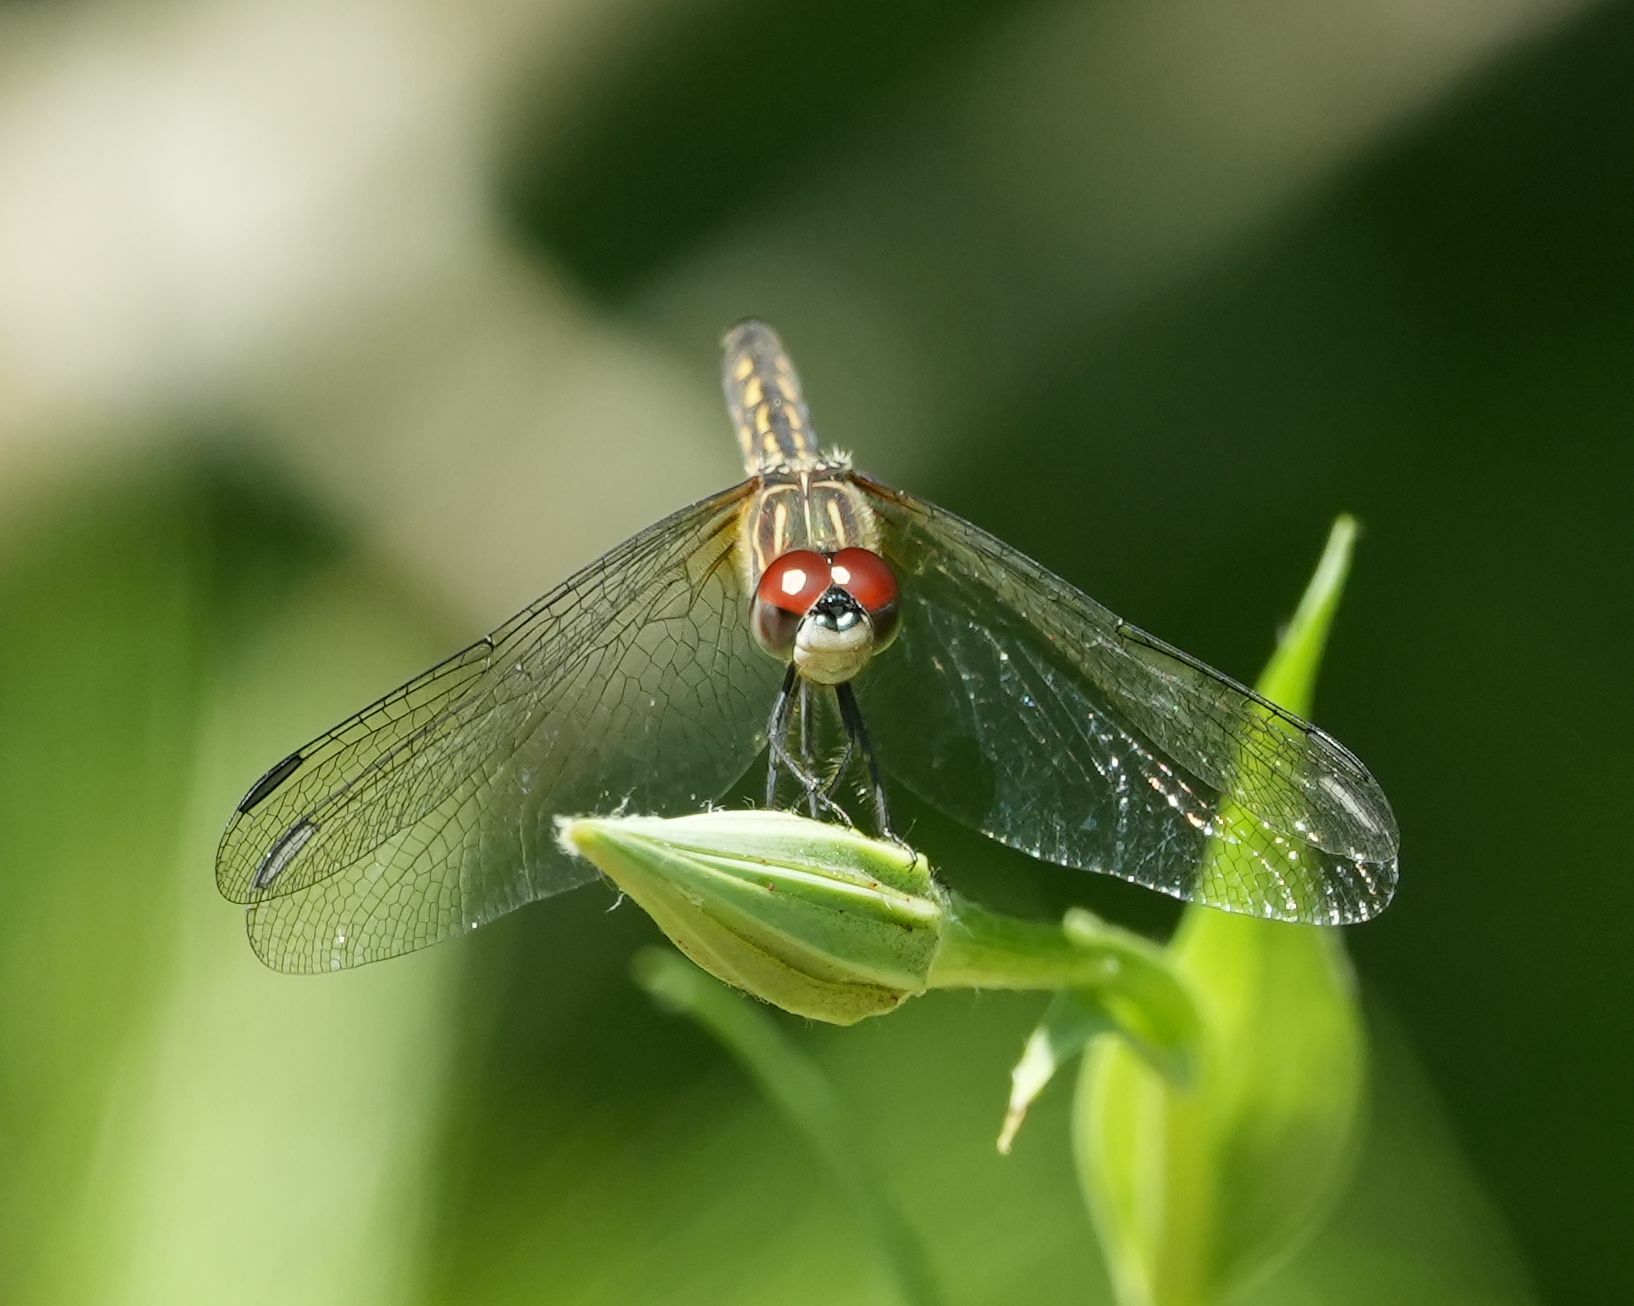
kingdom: Animalia
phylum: Arthropoda
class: Insecta
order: Odonata
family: Libellulidae
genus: Pachydiplax
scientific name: Pachydiplax longipennis
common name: Blue dasher
